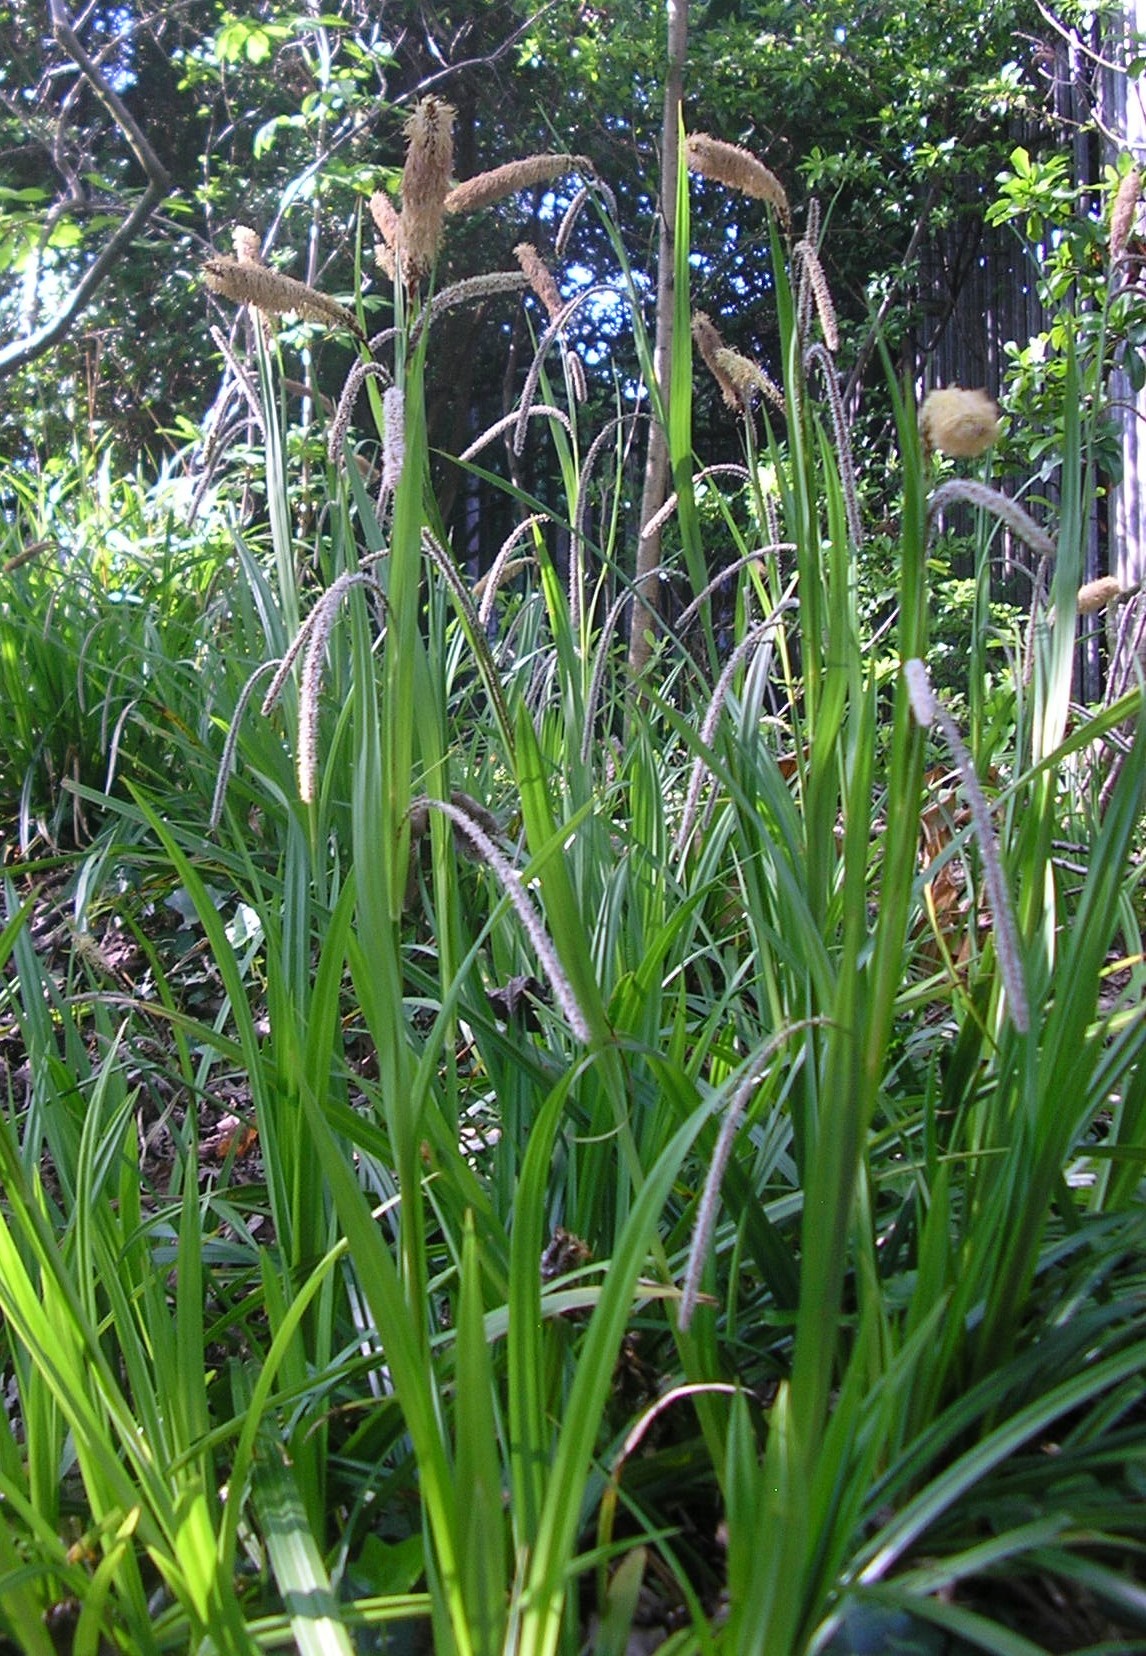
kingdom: Plantae
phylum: Tracheophyta
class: Liliopsida
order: Poales
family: Cyperaceae
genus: Carex
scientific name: Carex pendula
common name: Pendulous sedge
